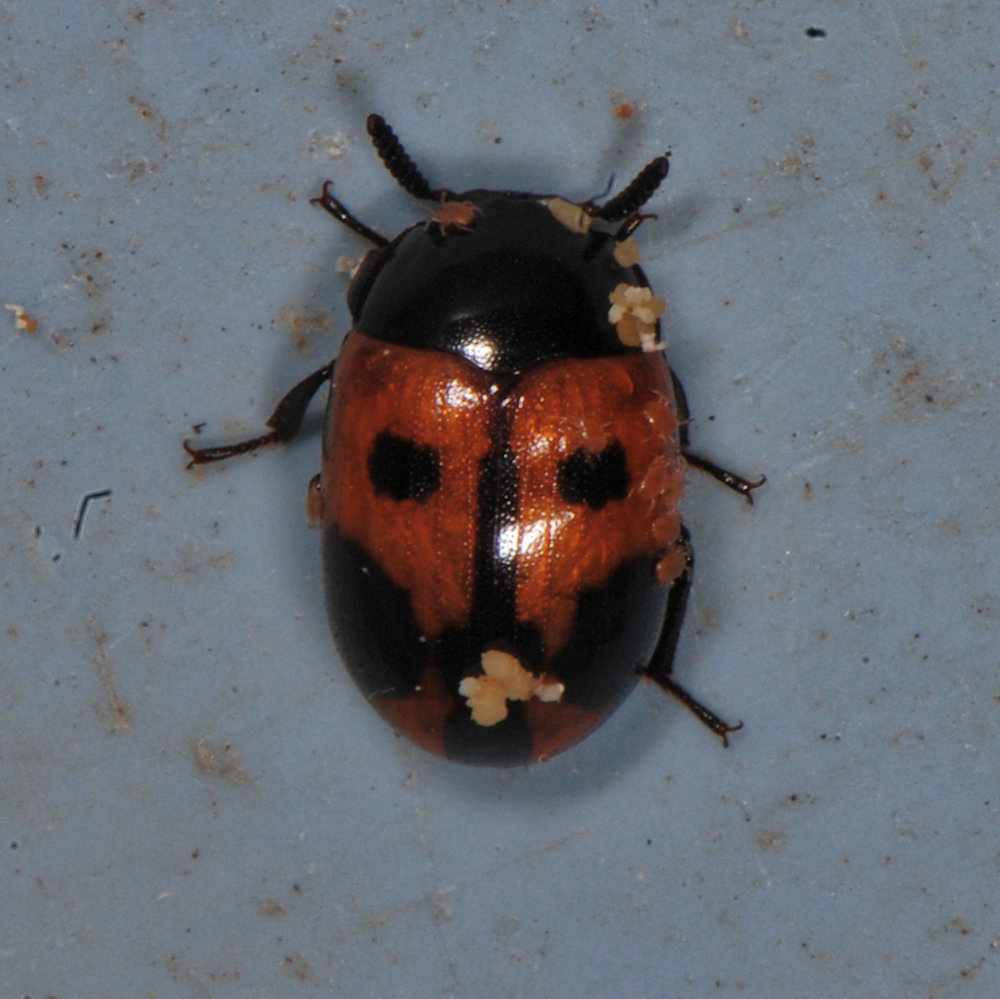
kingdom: Animalia
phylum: Arthropoda
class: Insecta
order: Coleoptera
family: Tenebrionidae
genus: Diaperis
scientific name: Diaperis maculata
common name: Darkling beetle
